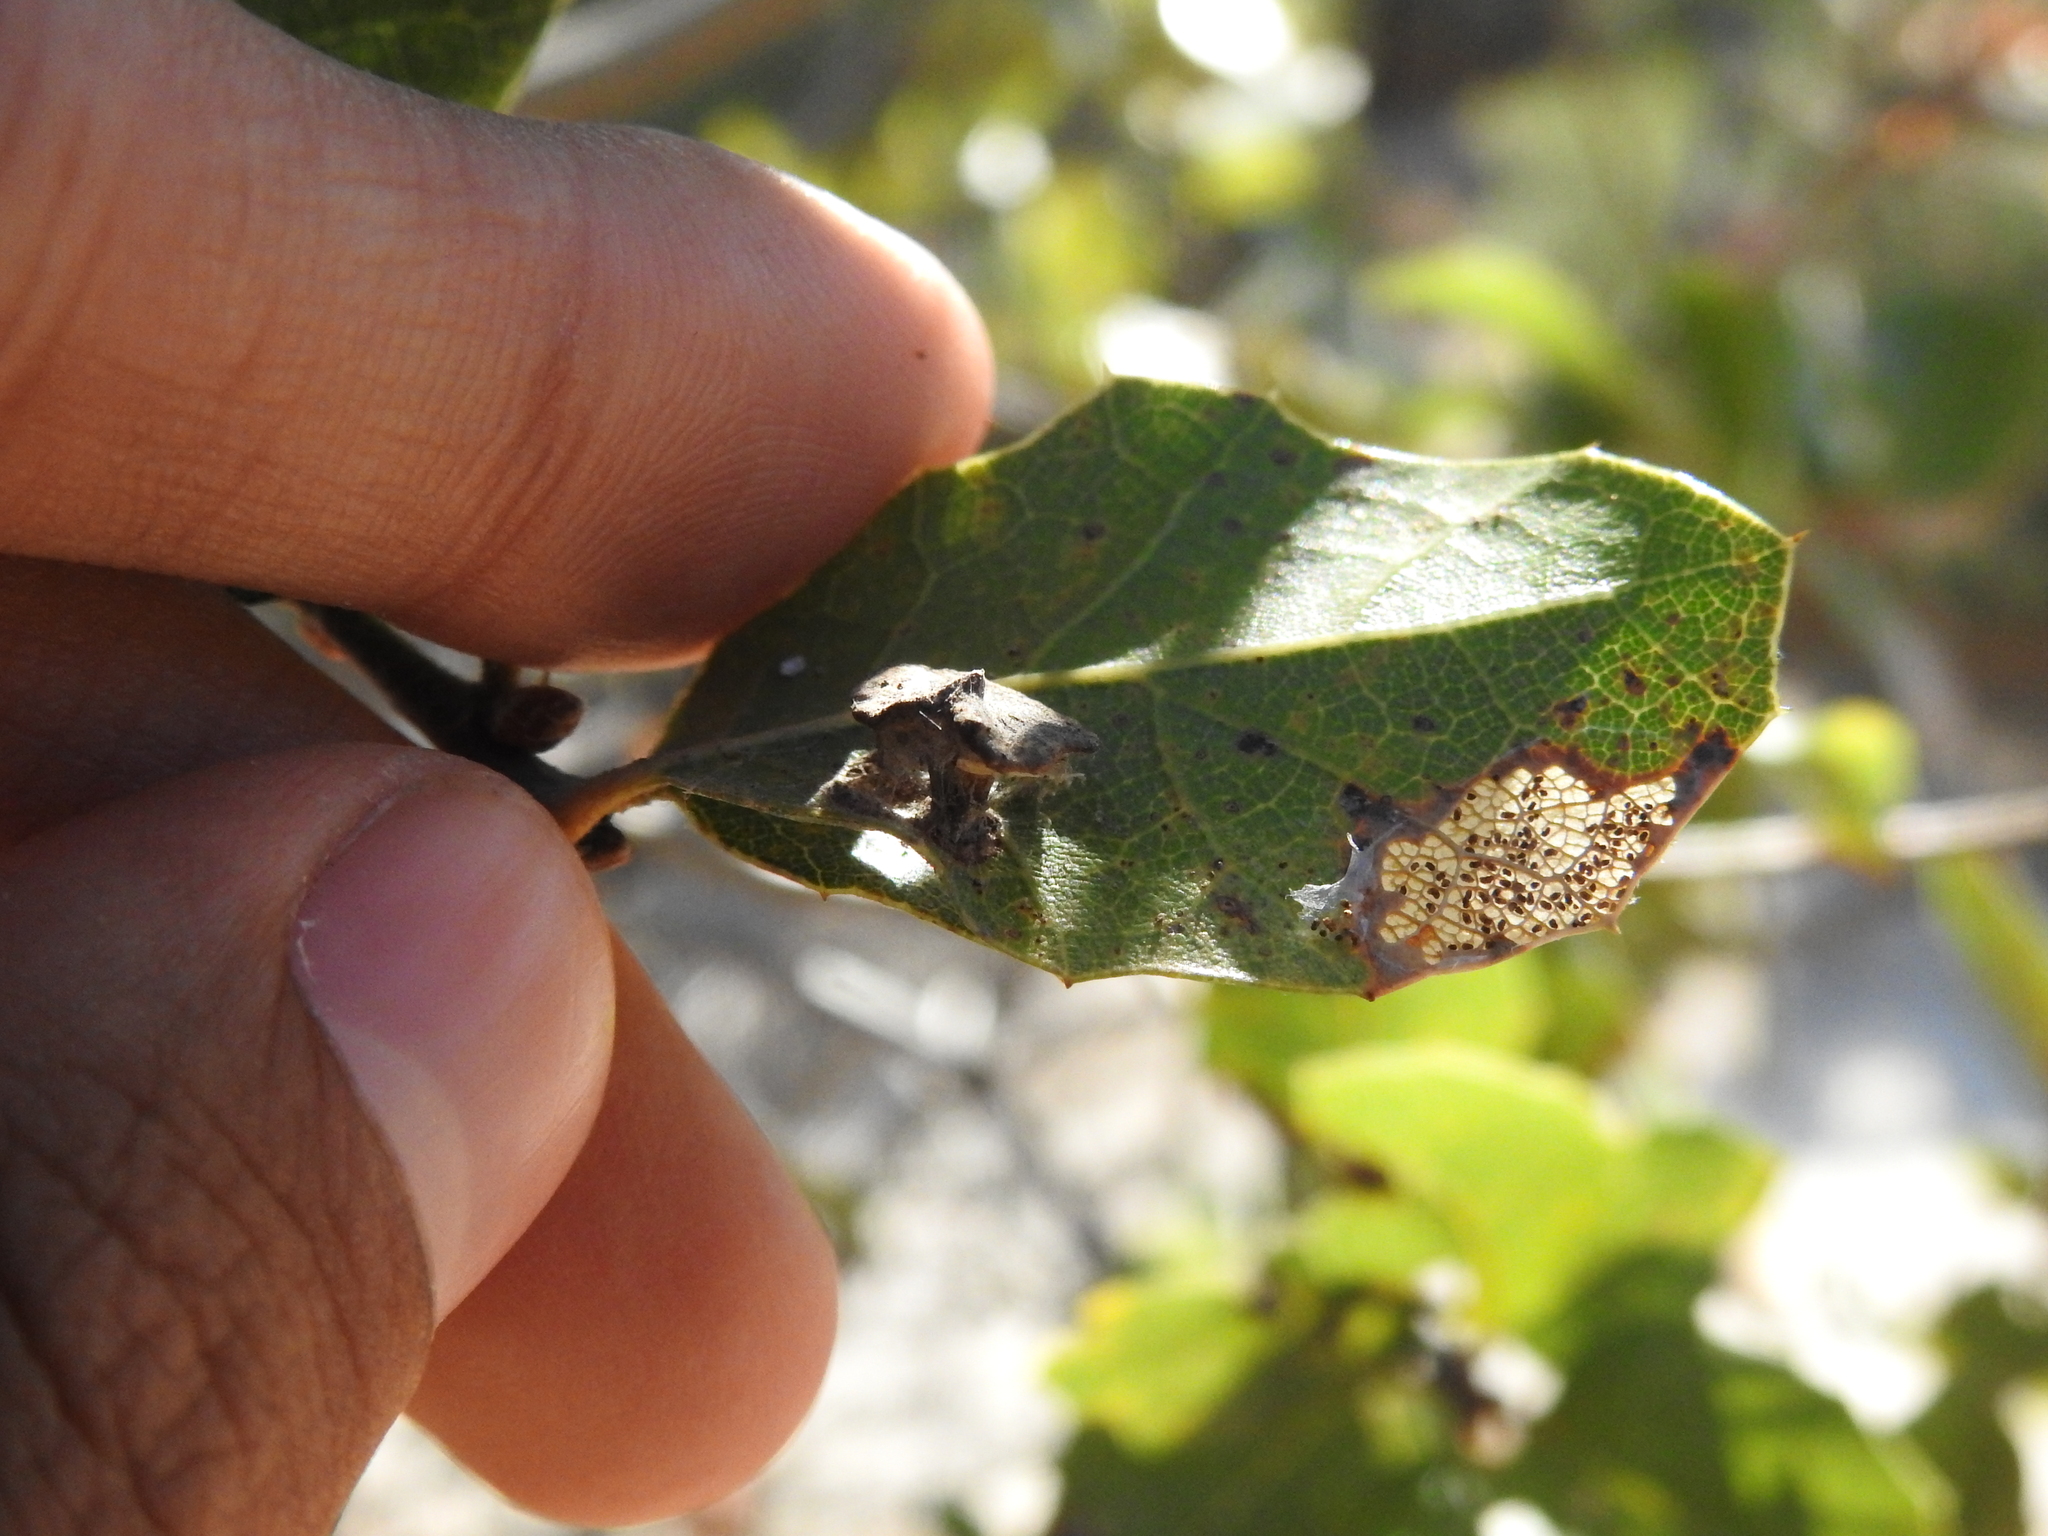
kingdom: Animalia
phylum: Arthropoda
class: Insecta
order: Hymenoptera
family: Cynipidae
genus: Amphibolips
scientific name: Amphibolips quercuspomiformis
